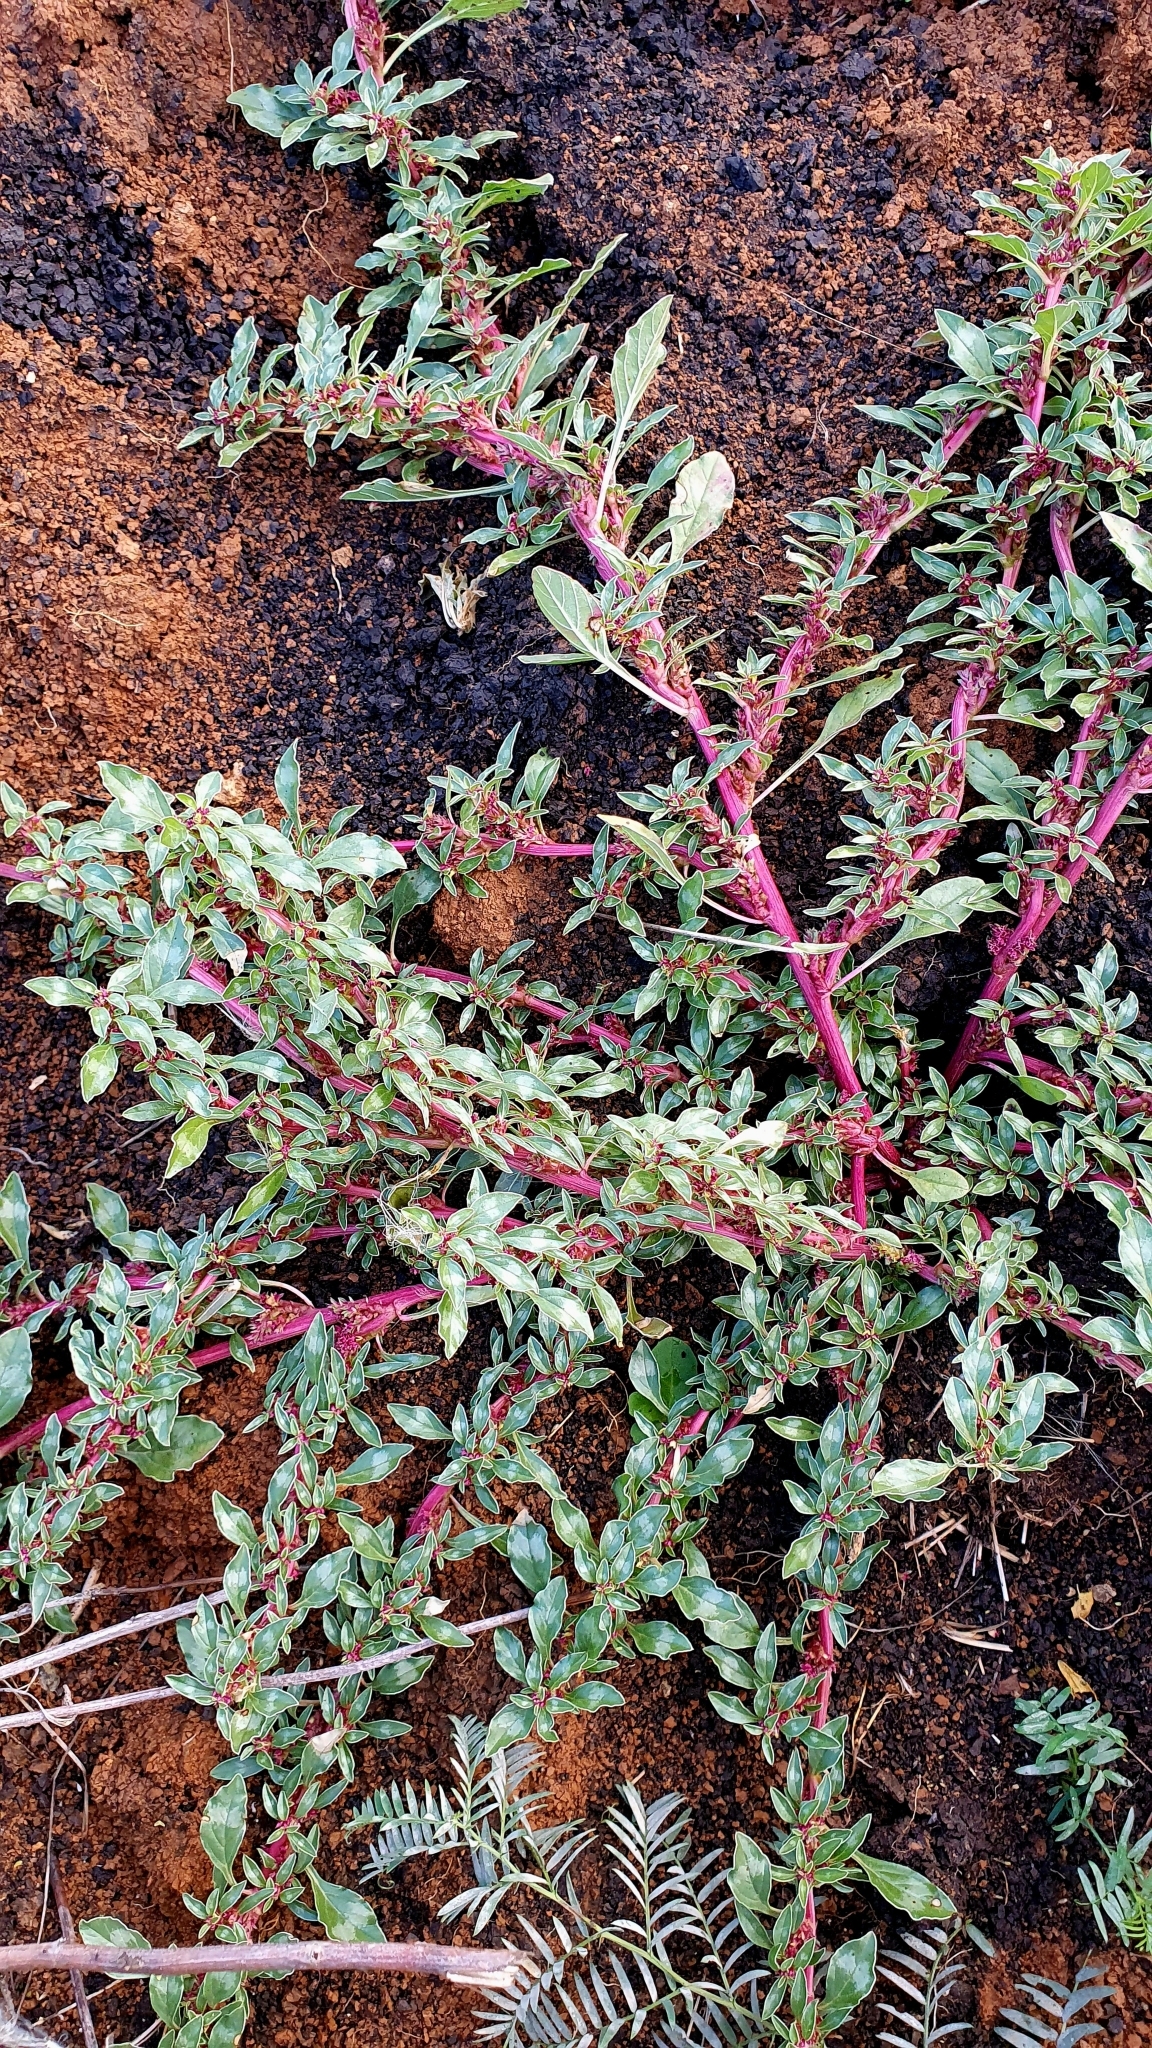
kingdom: Plantae
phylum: Tracheophyta
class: Magnoliopsida
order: Caryophyllales
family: Amaranthaceae
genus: Amaranthus
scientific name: Amaranthus blitoides
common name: Prostrate pigweed
